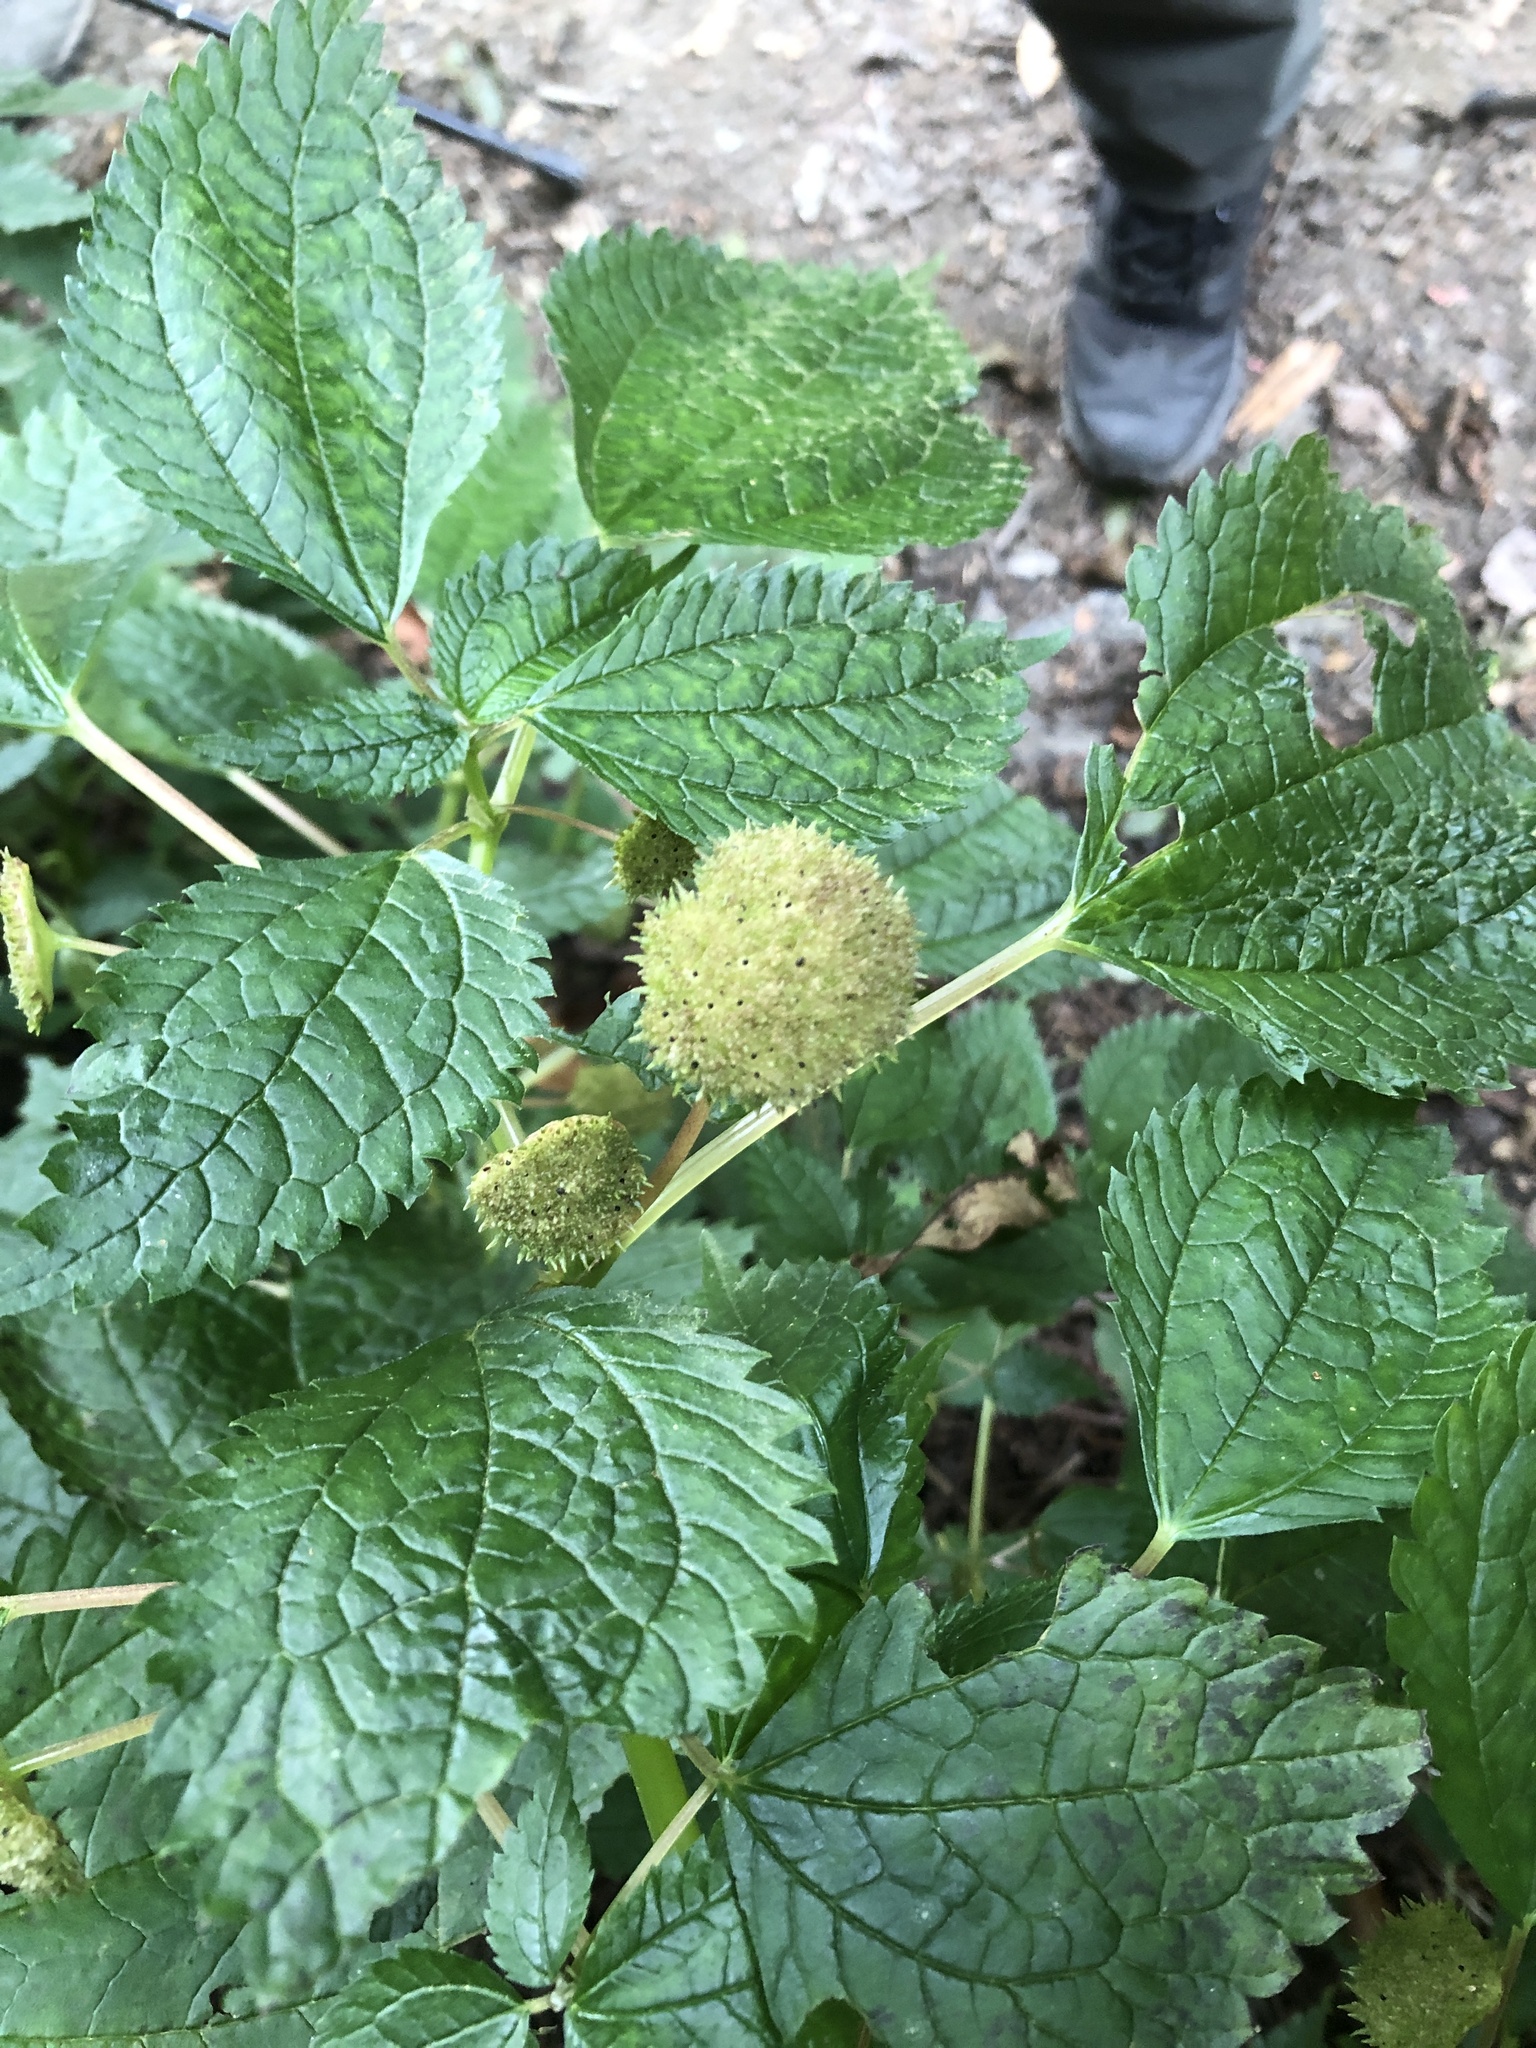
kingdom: Plantae
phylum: Tracheophyta
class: Magnoliopsida
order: Rosales
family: Urticaceae
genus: Lecanthus
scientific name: Lecanthus peduncularis
